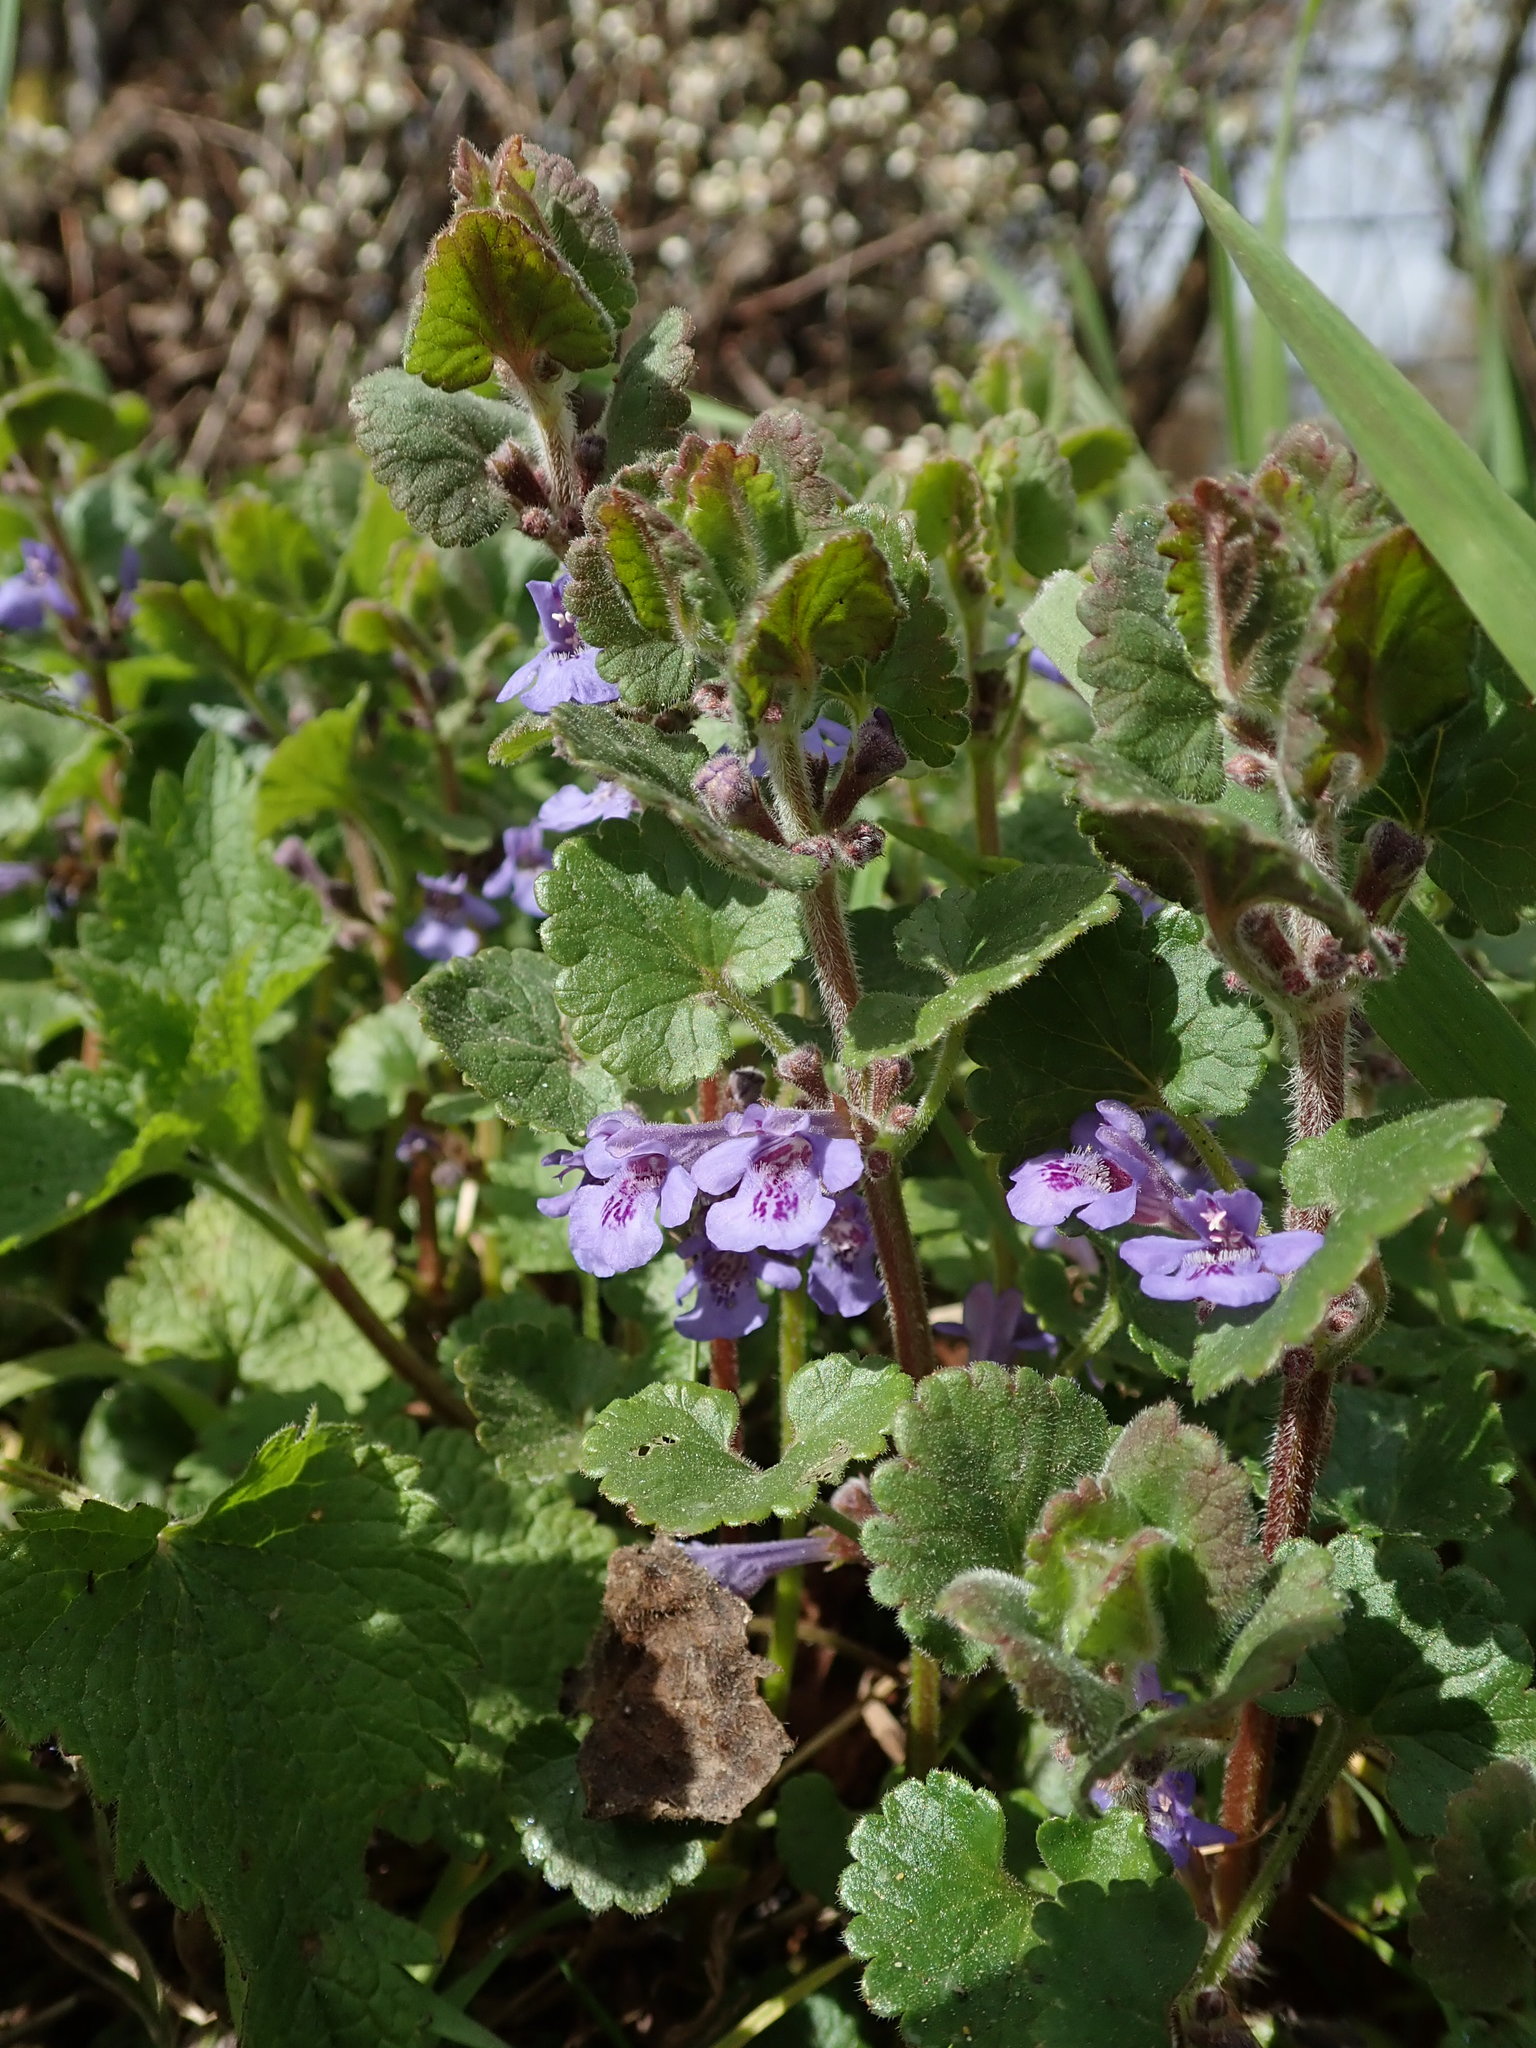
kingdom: Plantae
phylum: Tracheophyta
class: Magnoliopsida
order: Lamiales
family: Lamiaceae
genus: Glechoma
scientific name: Glechoma hederacea
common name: Ground ivy
